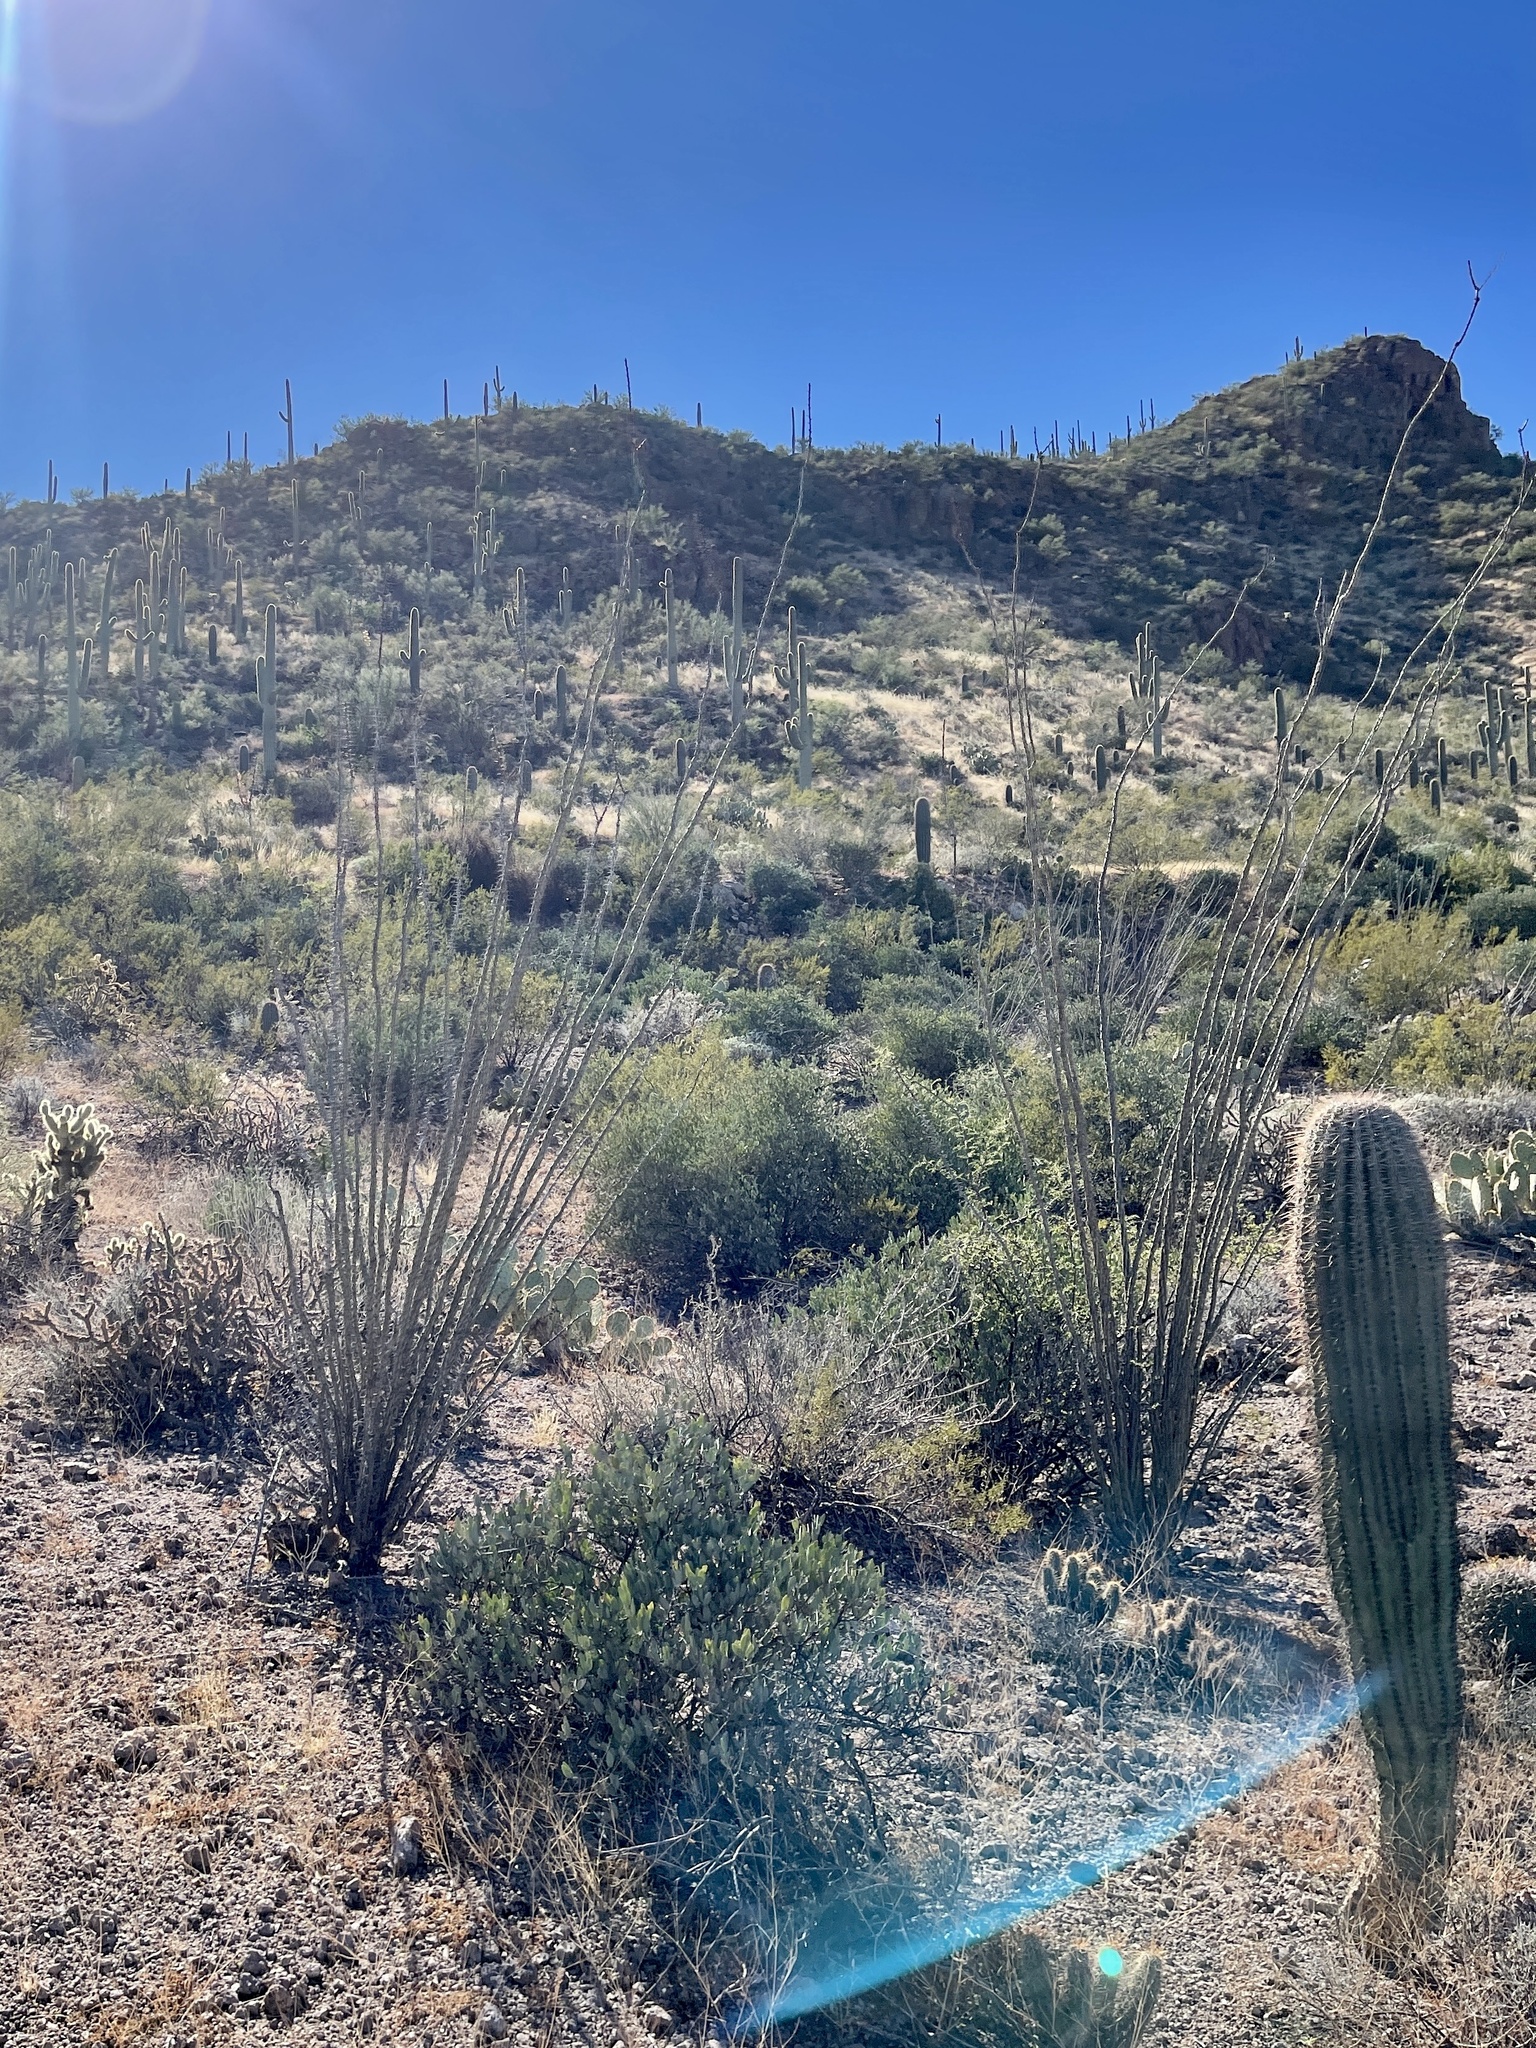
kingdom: Plantae
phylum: Tracheophyta
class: Magnoliopsida
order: Ericales
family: Fouquieriaceae
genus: Fouquieria
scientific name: Fouquieria splendens
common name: Vine-cactus
